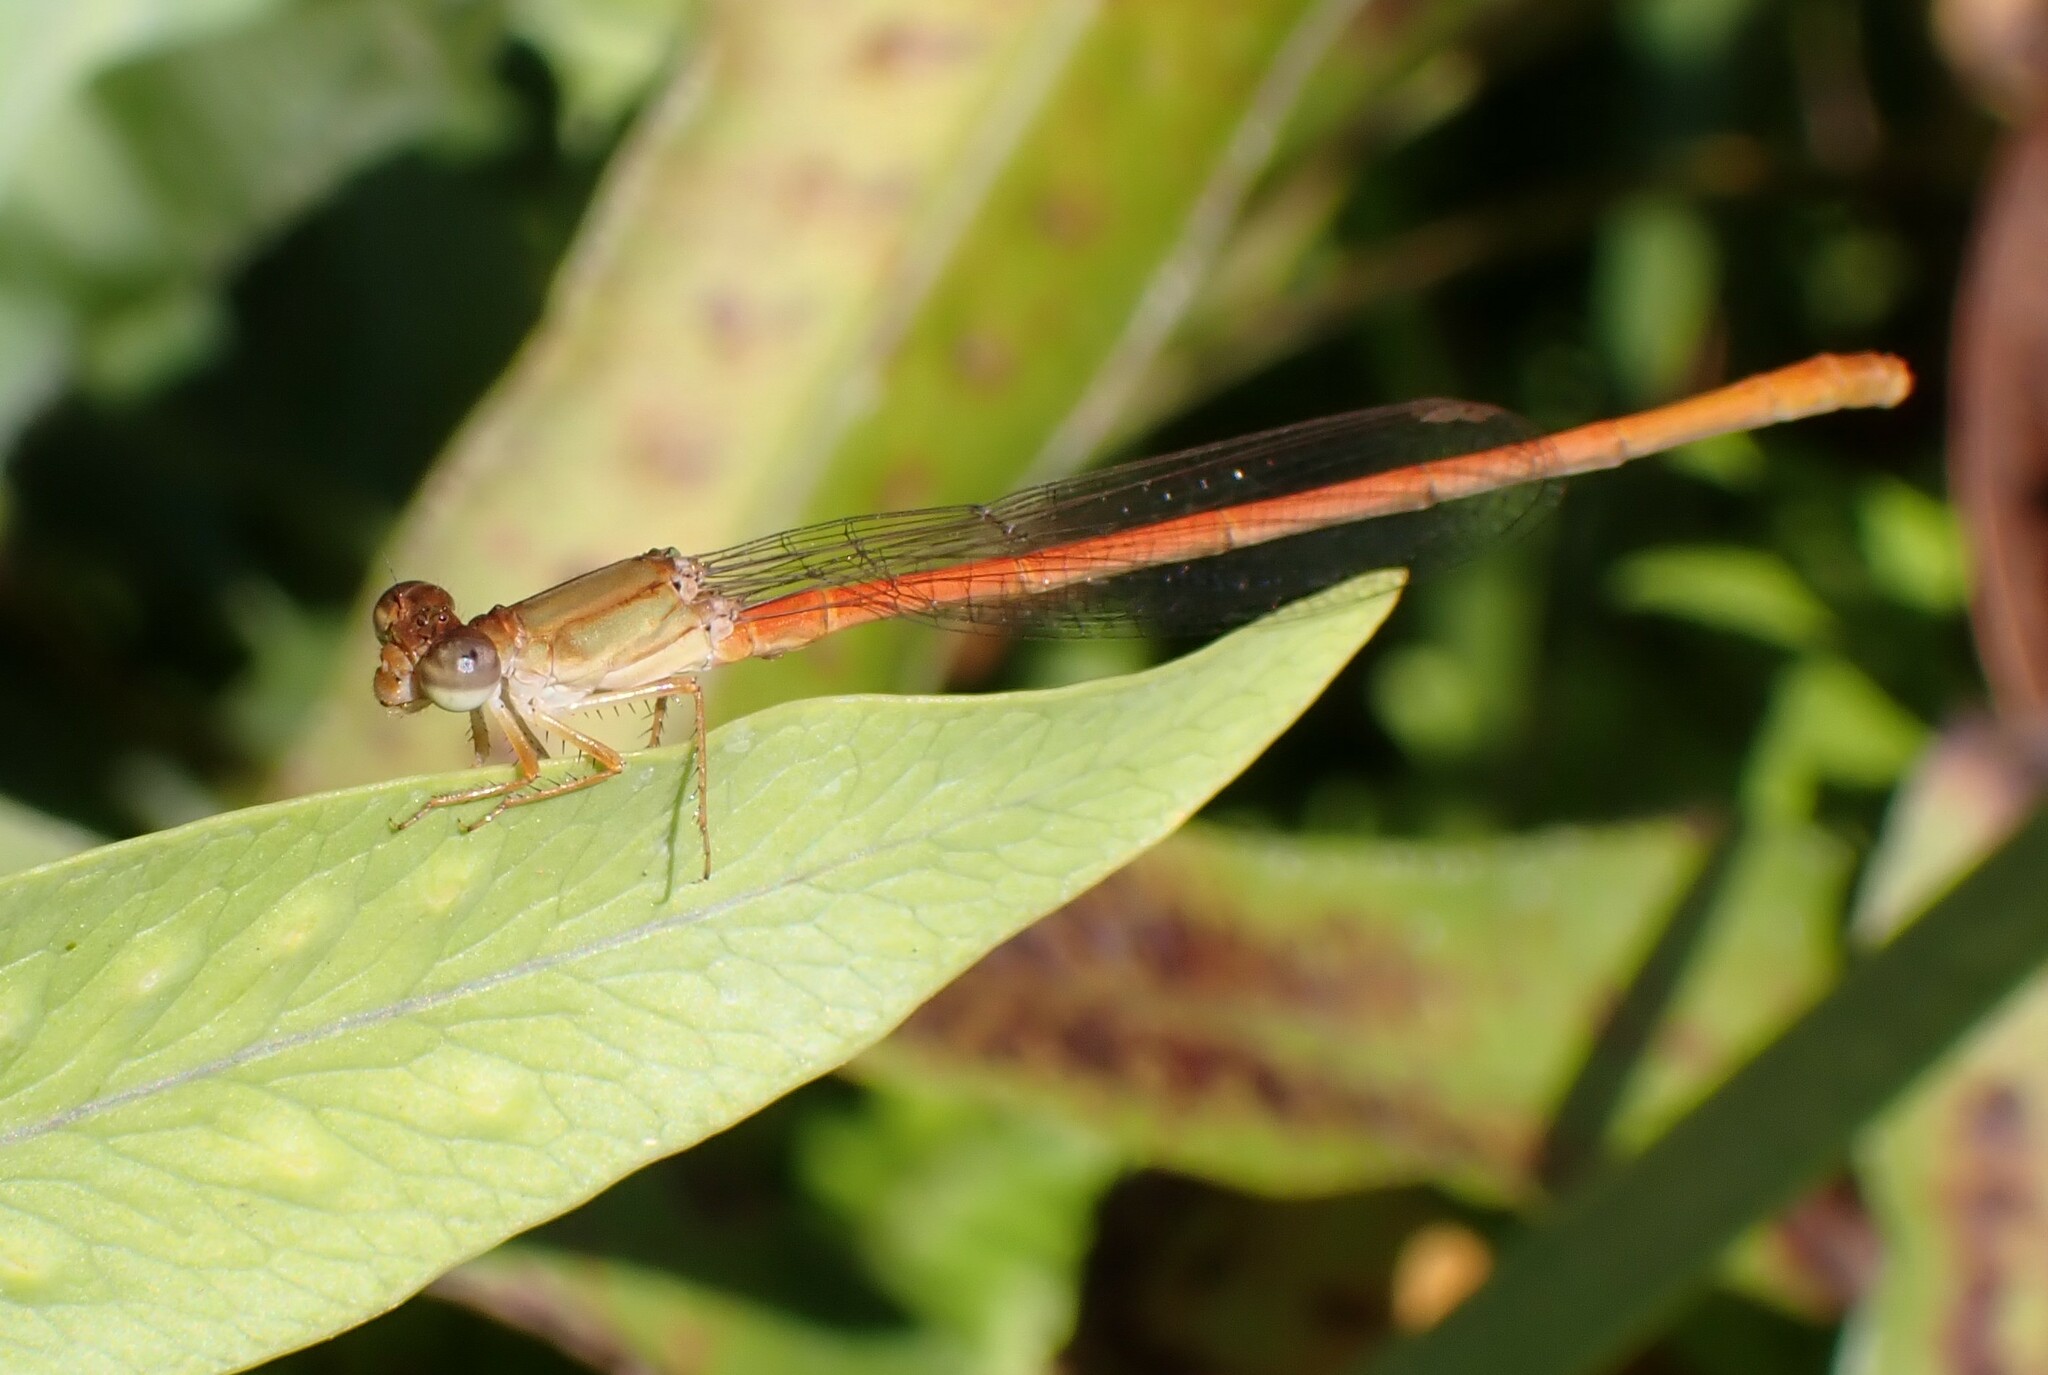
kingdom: Animalia
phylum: Arthropoda
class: Insecta
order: Odonata
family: Coenagrionidae
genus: Ceriagrion
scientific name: Ceriagrion glabrum
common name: Common pond damsel
